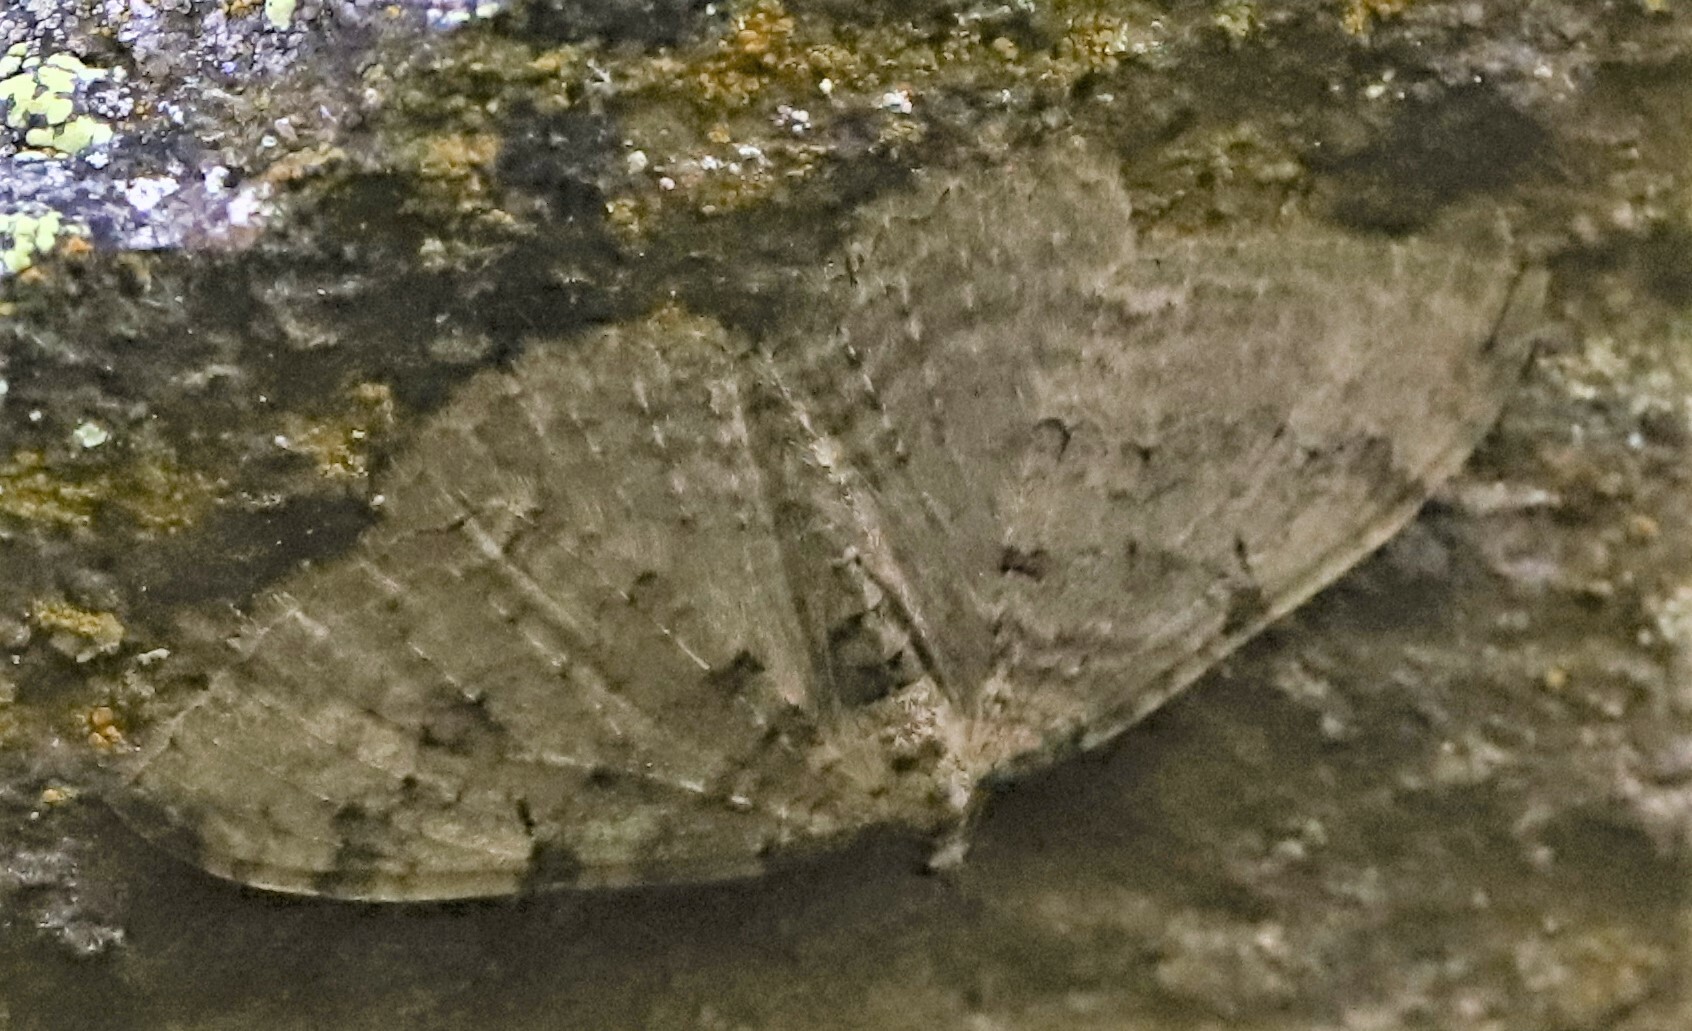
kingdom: Animalia
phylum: Arthropoda
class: Insecta
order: Lepidoptera
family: Geometridae
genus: Triphosa
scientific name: Triphosa sabaudiata
